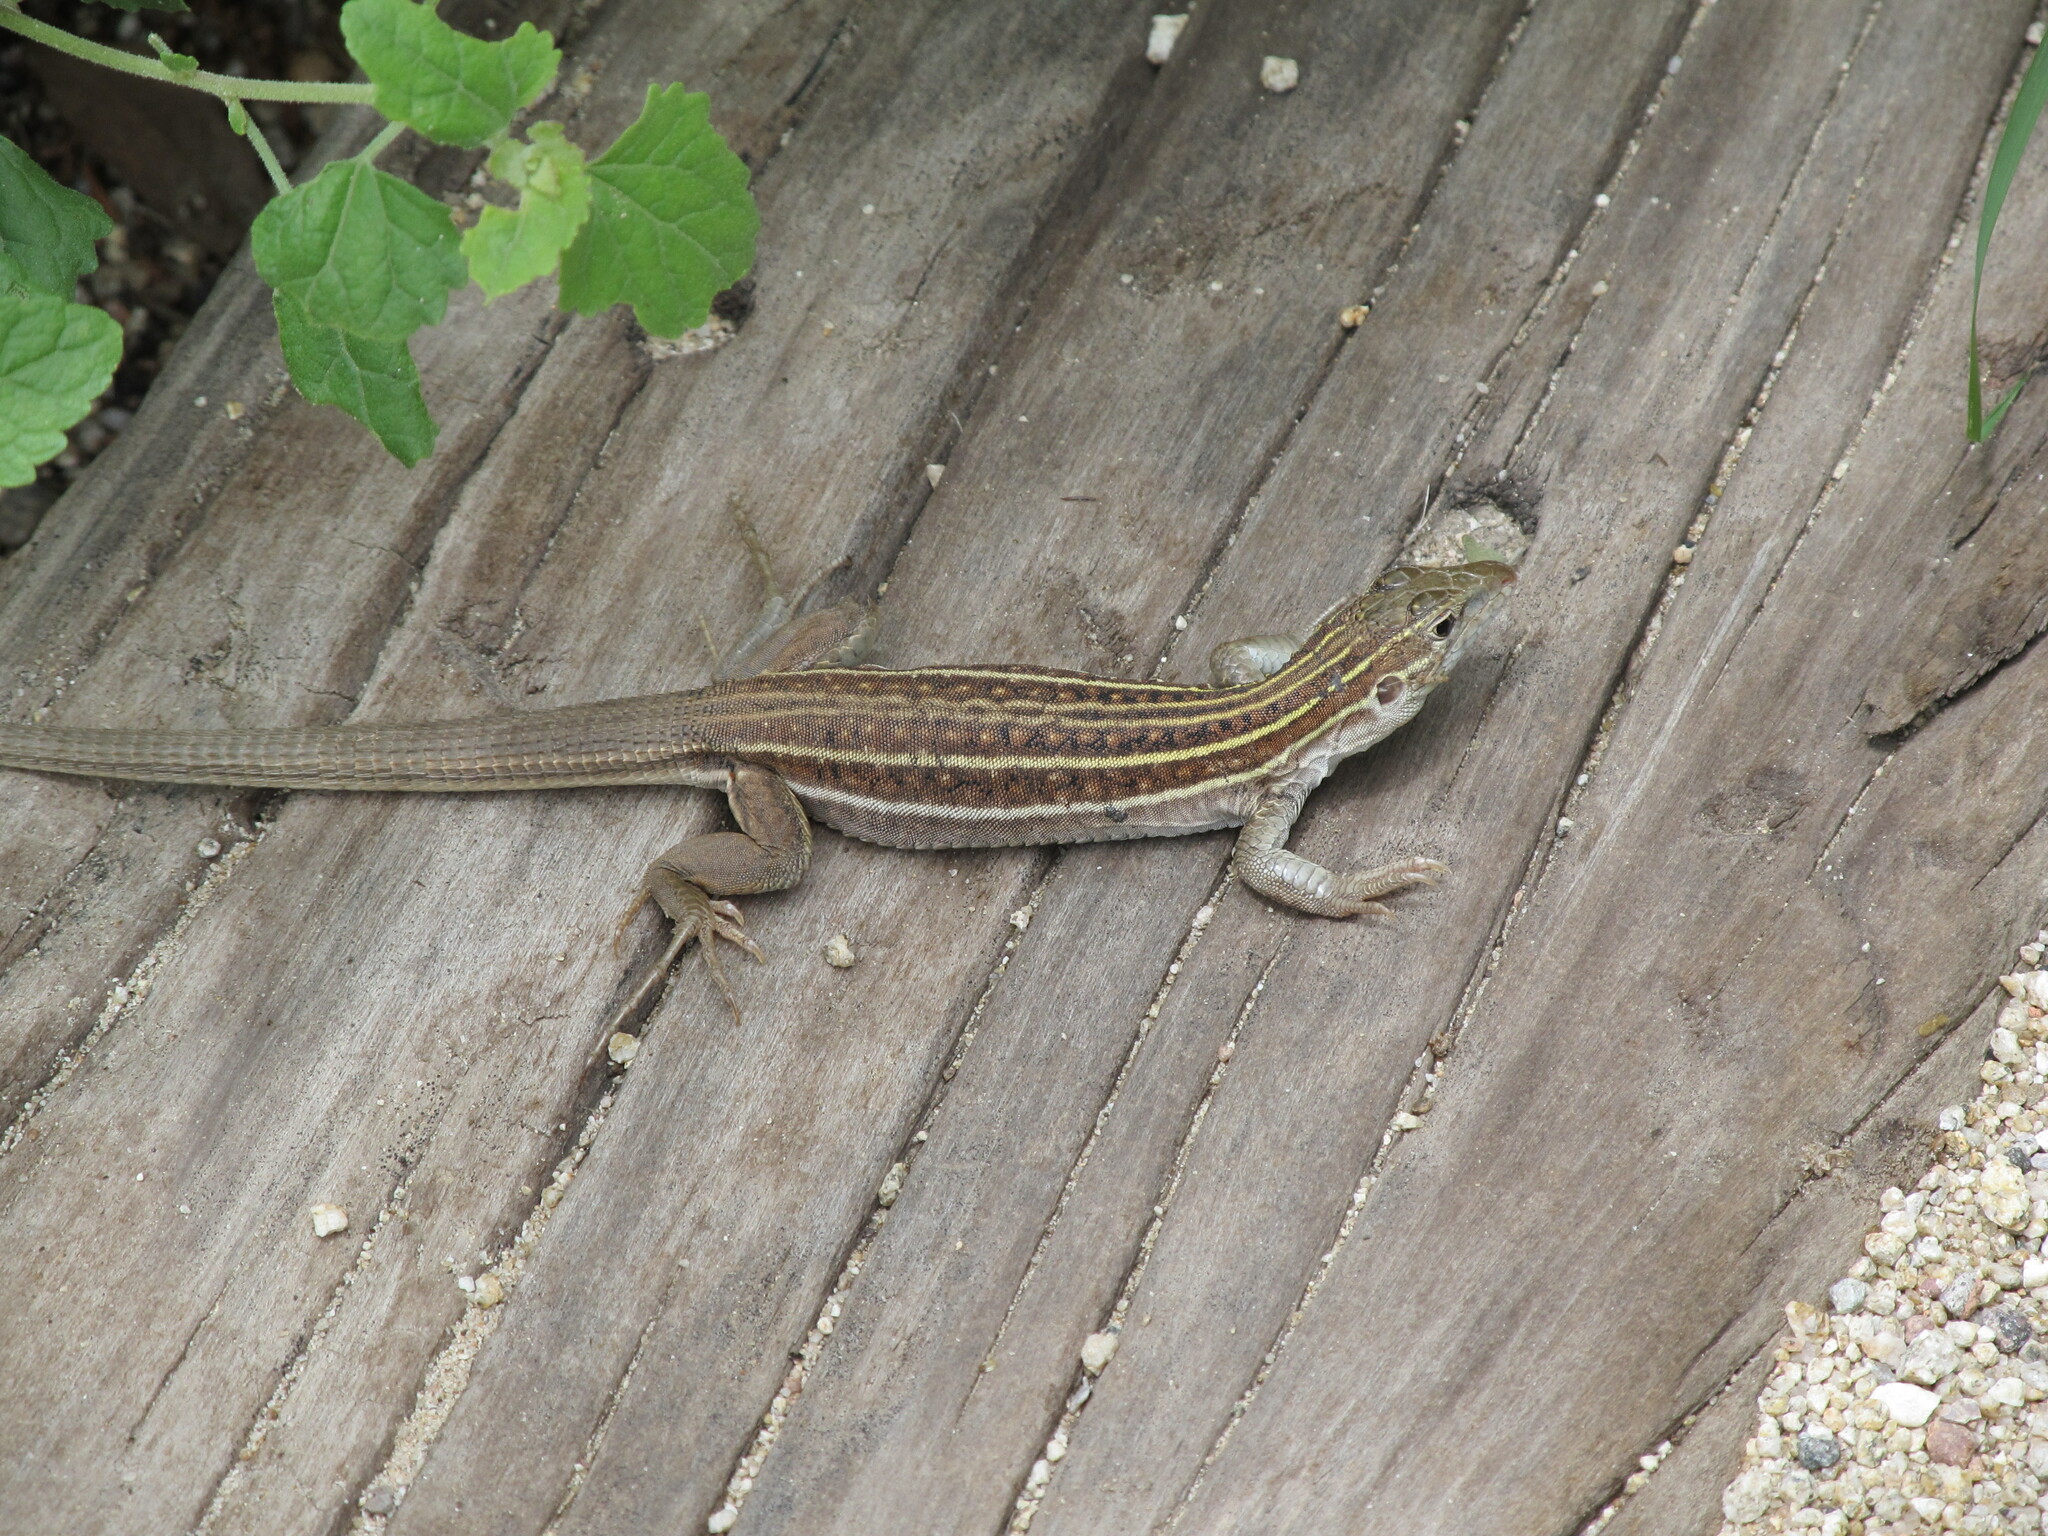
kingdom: Animalia
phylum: Chordata
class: Squamata
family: Teiidae
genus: Aspidoscelis
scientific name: Aspidoscelis sonorae
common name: Sonoran spotted whiptail
